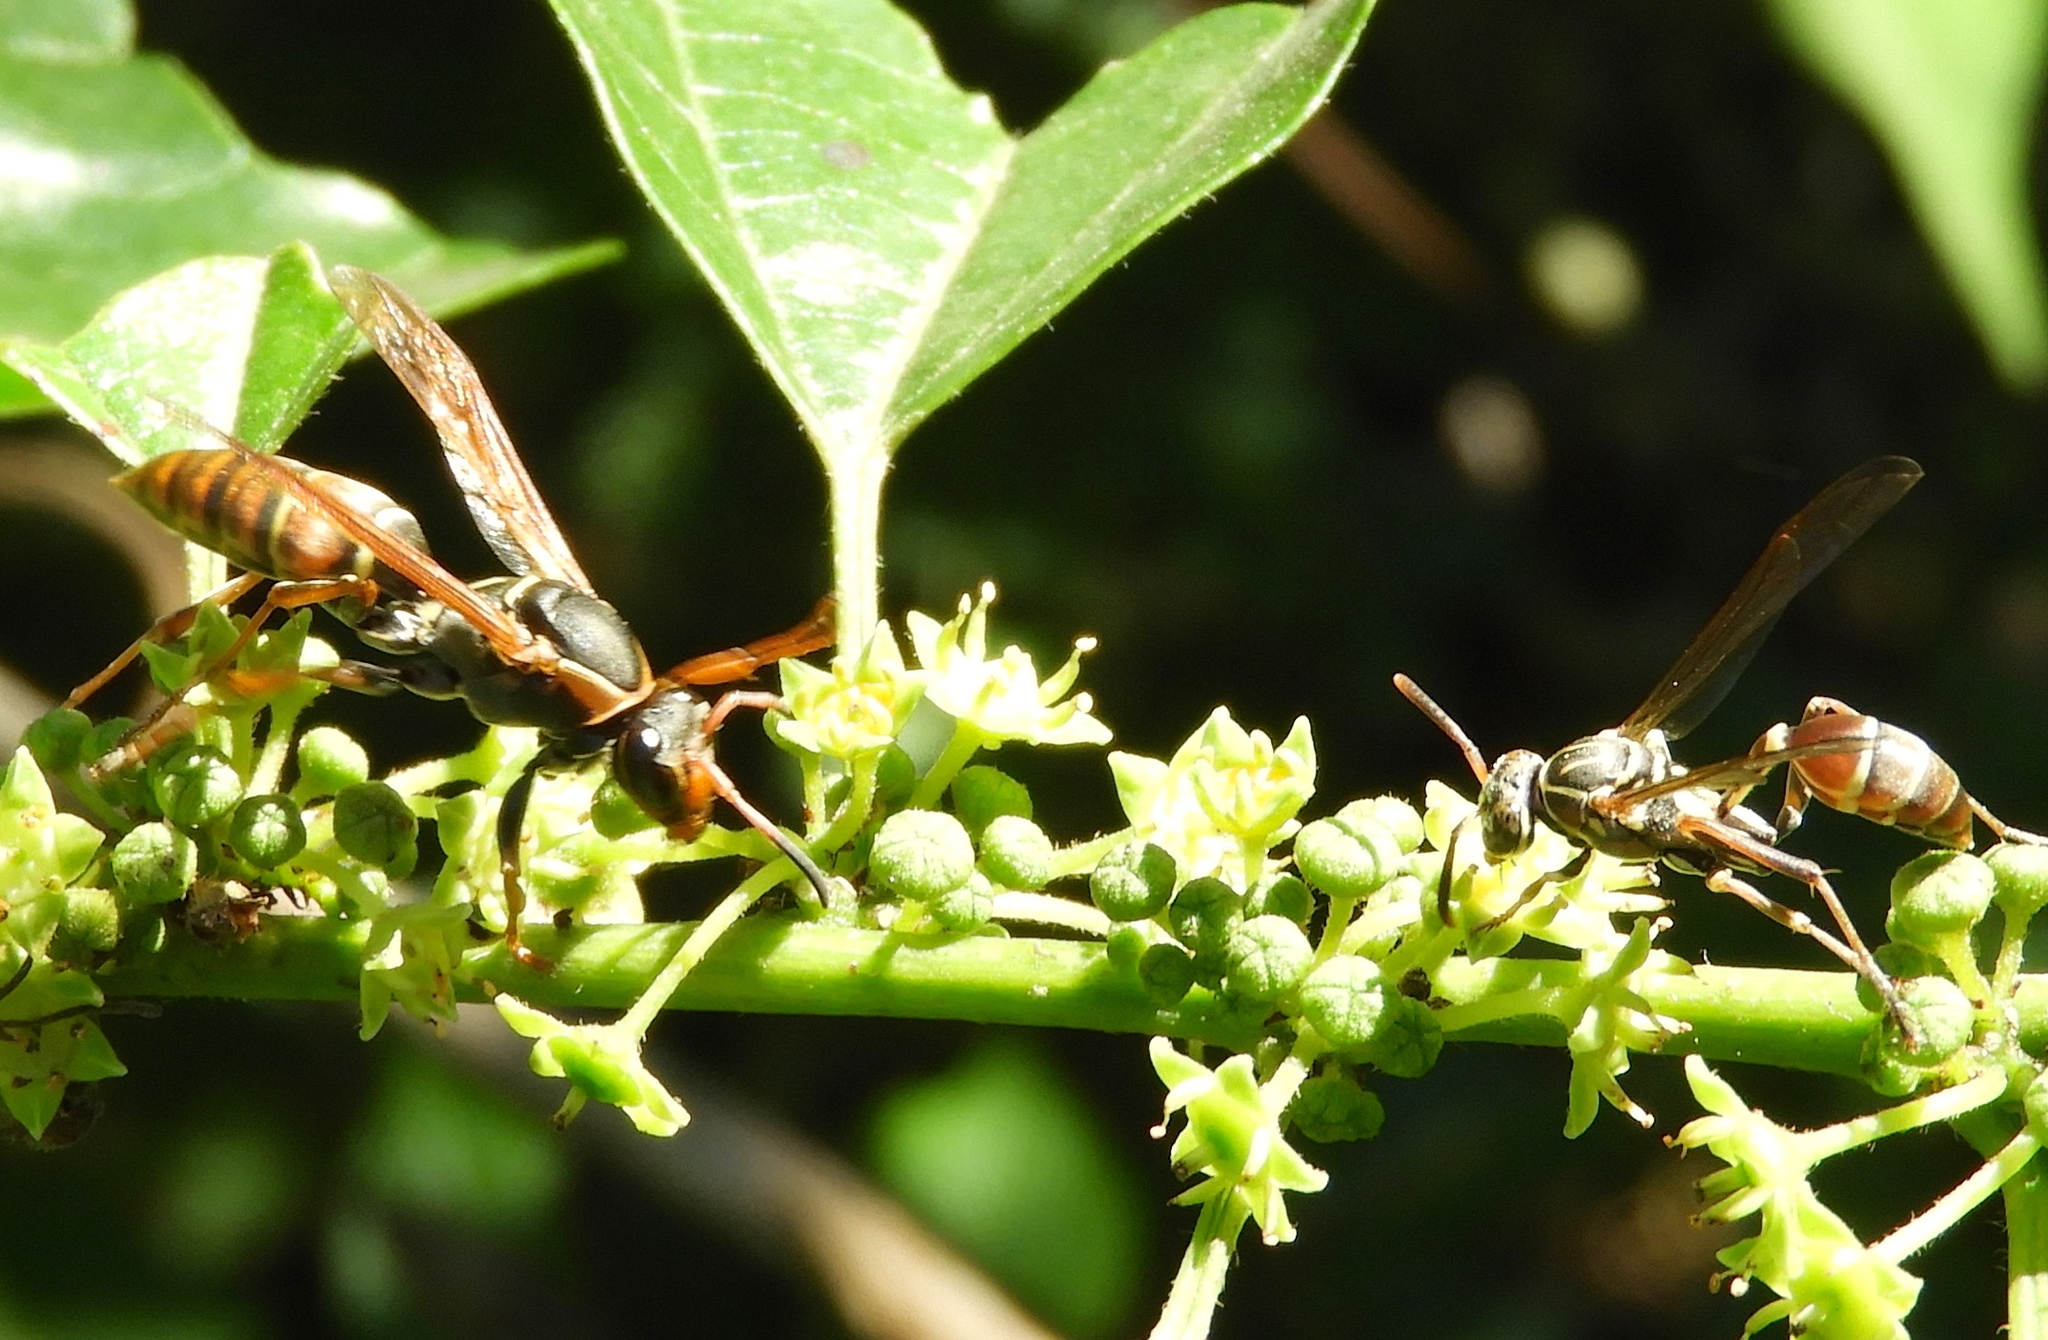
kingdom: Animalia
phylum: Arthropoda
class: Insecta
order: Hymenoptera
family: Eumenidae
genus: Polistes
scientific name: Polistes pacificus
